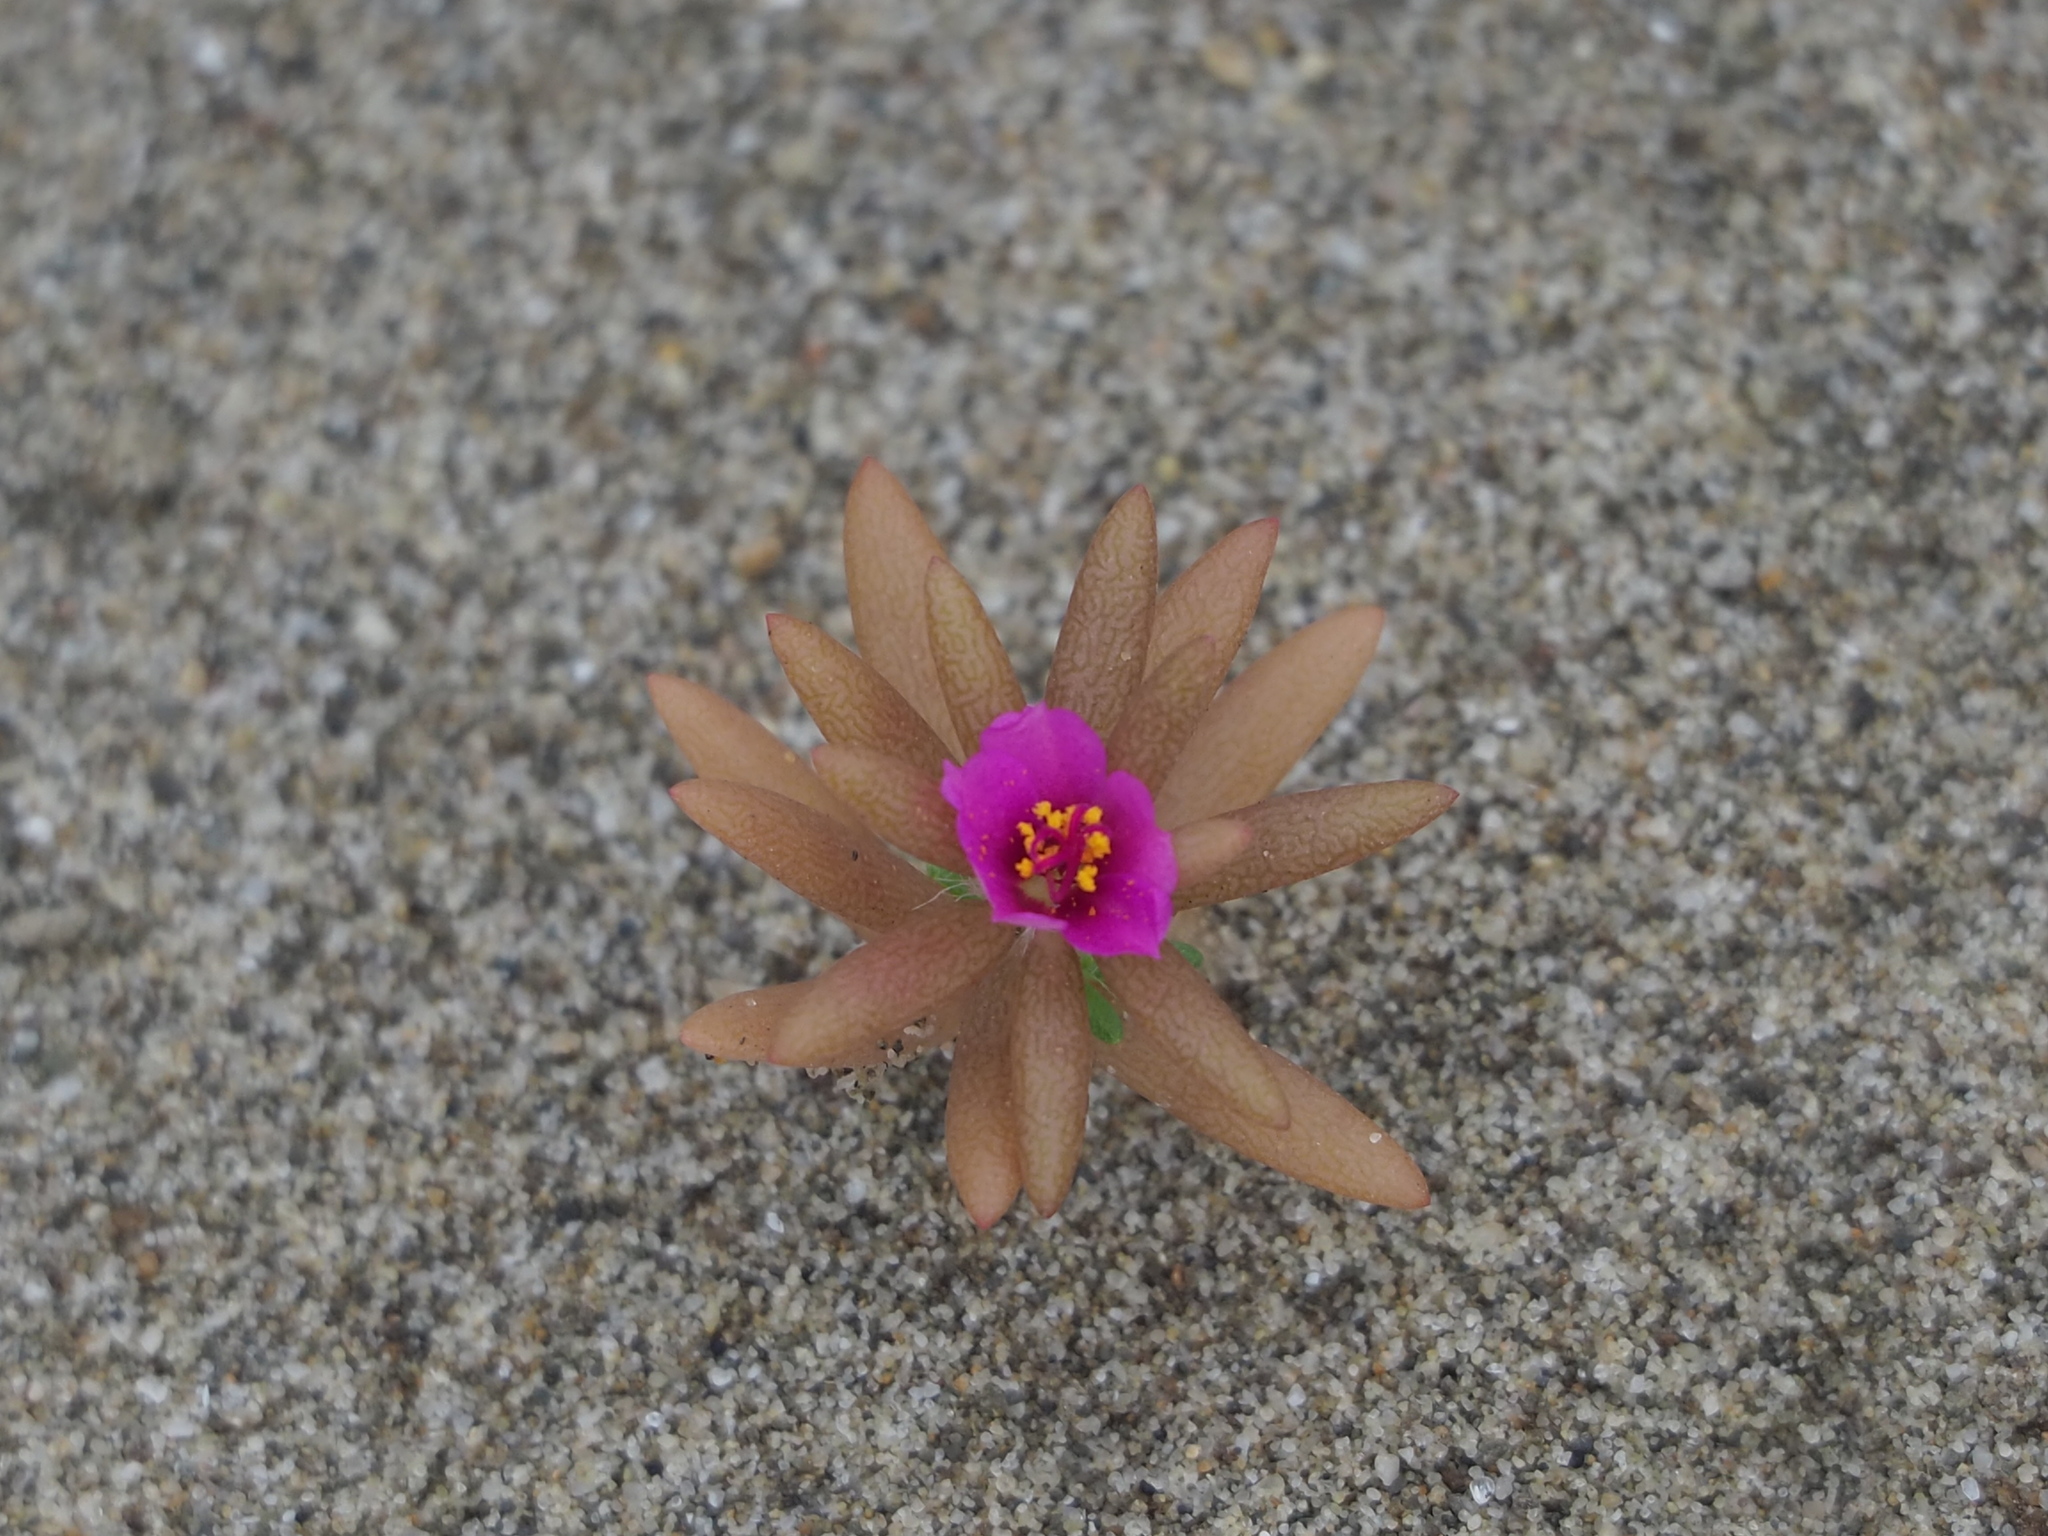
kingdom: Plantae
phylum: Tracheophyta
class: Magnoliopsida
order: Caryophyllales
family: Portulacaceae
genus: Portulaca
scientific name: Portulaca pilosa
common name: Kiss me quick
